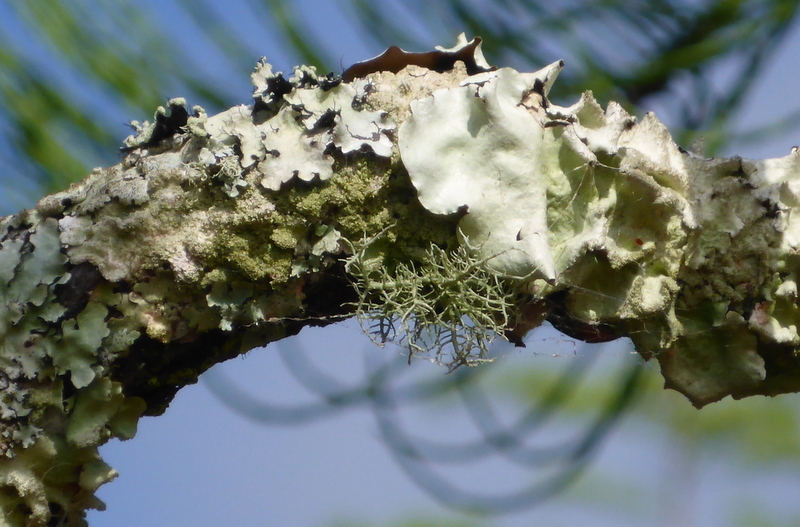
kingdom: Fungi
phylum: Ascomycota
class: Lecanoromycetes
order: Lecanorales
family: Parmeliaceae
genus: Parmotrema
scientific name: Parmotrema tinctorum
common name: Old gray ruffles
